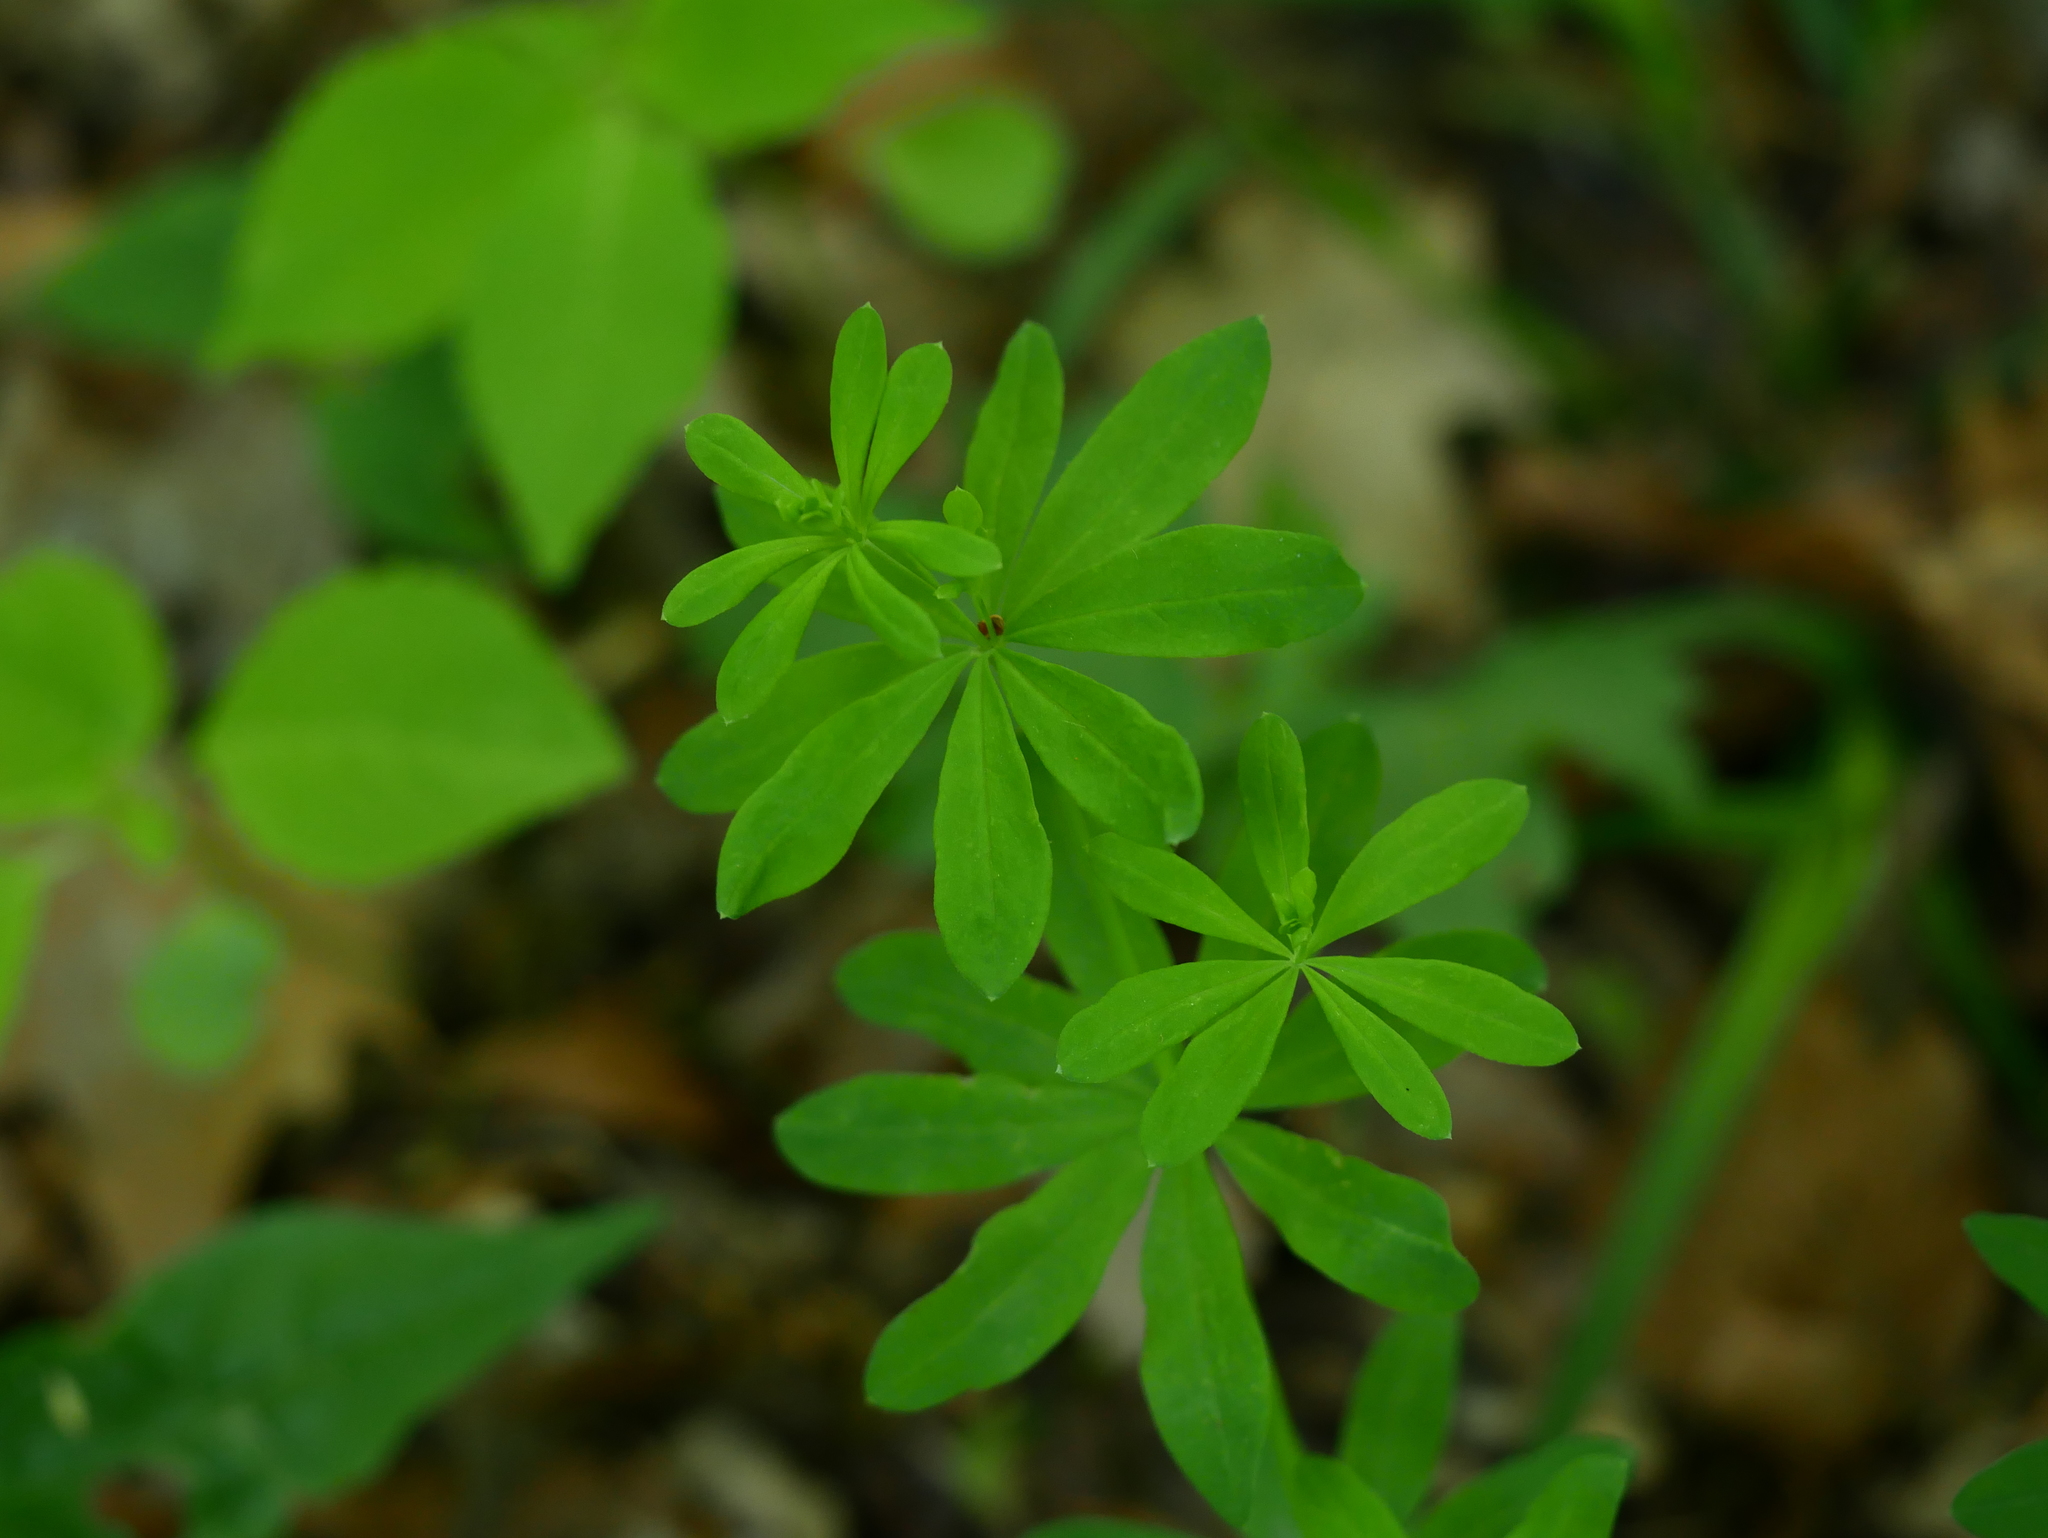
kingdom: Plantae
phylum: Tracheophyta
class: Magnoliopsida
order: Gentianales
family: Rubiaceae
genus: Galium
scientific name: Galium odoratum
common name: Sweet woodruff
